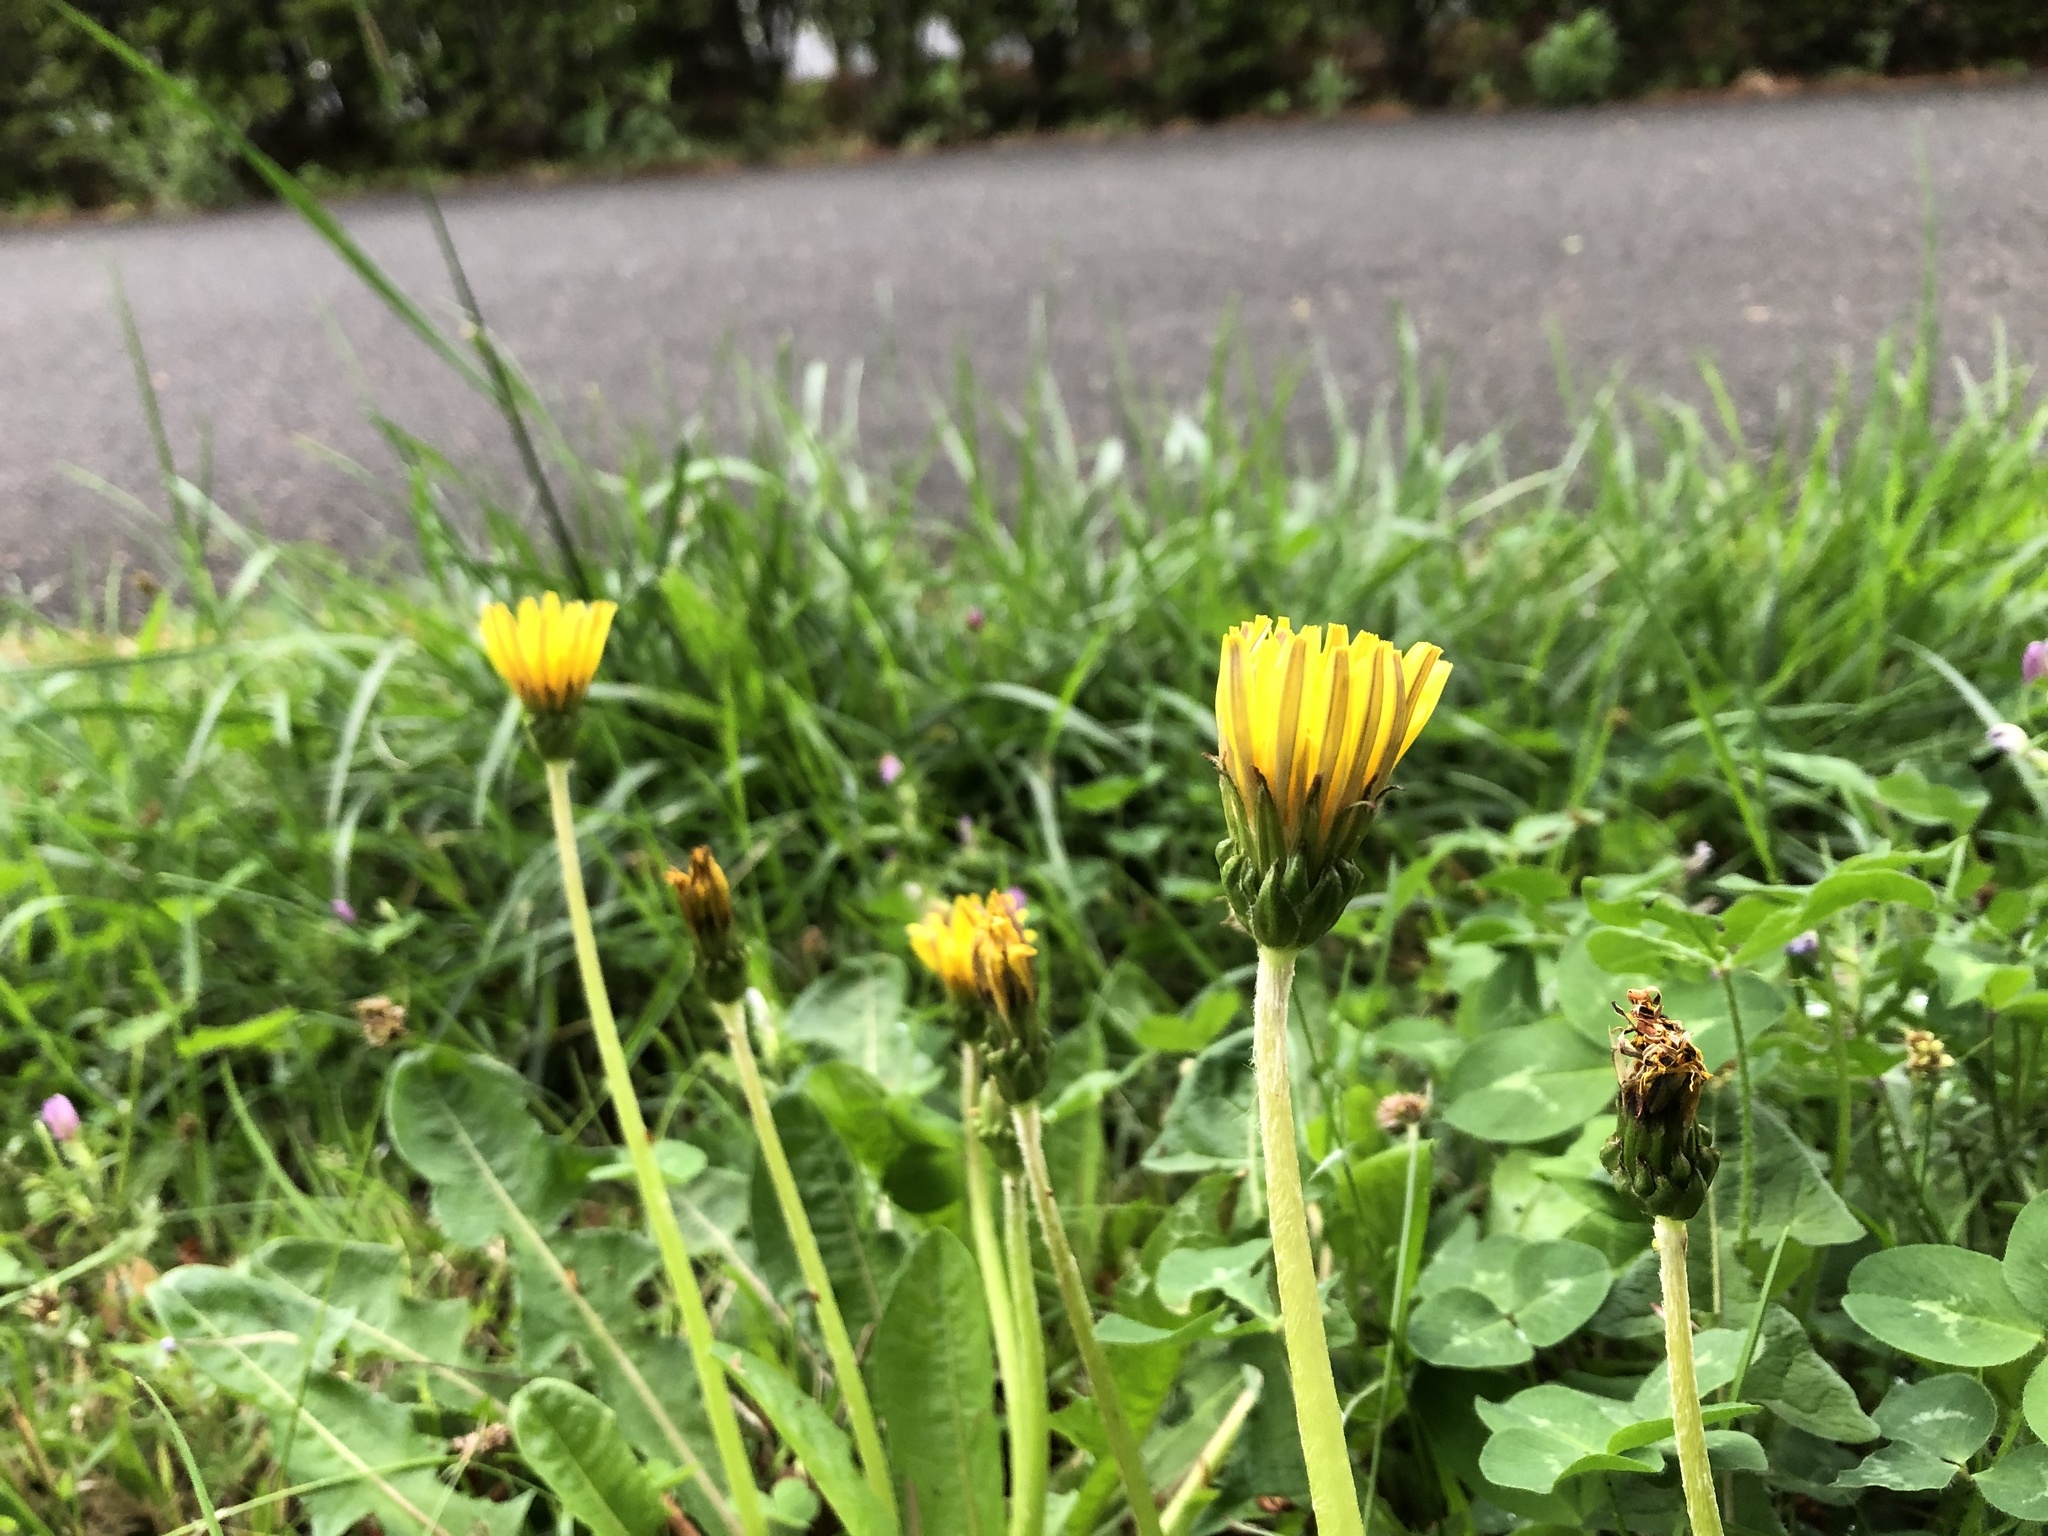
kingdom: Plantae
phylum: Tracheophyta
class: Magnoliopsida
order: Asterales
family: Asteraceae
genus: Taraxacum
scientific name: Taraxacum platycarpum
